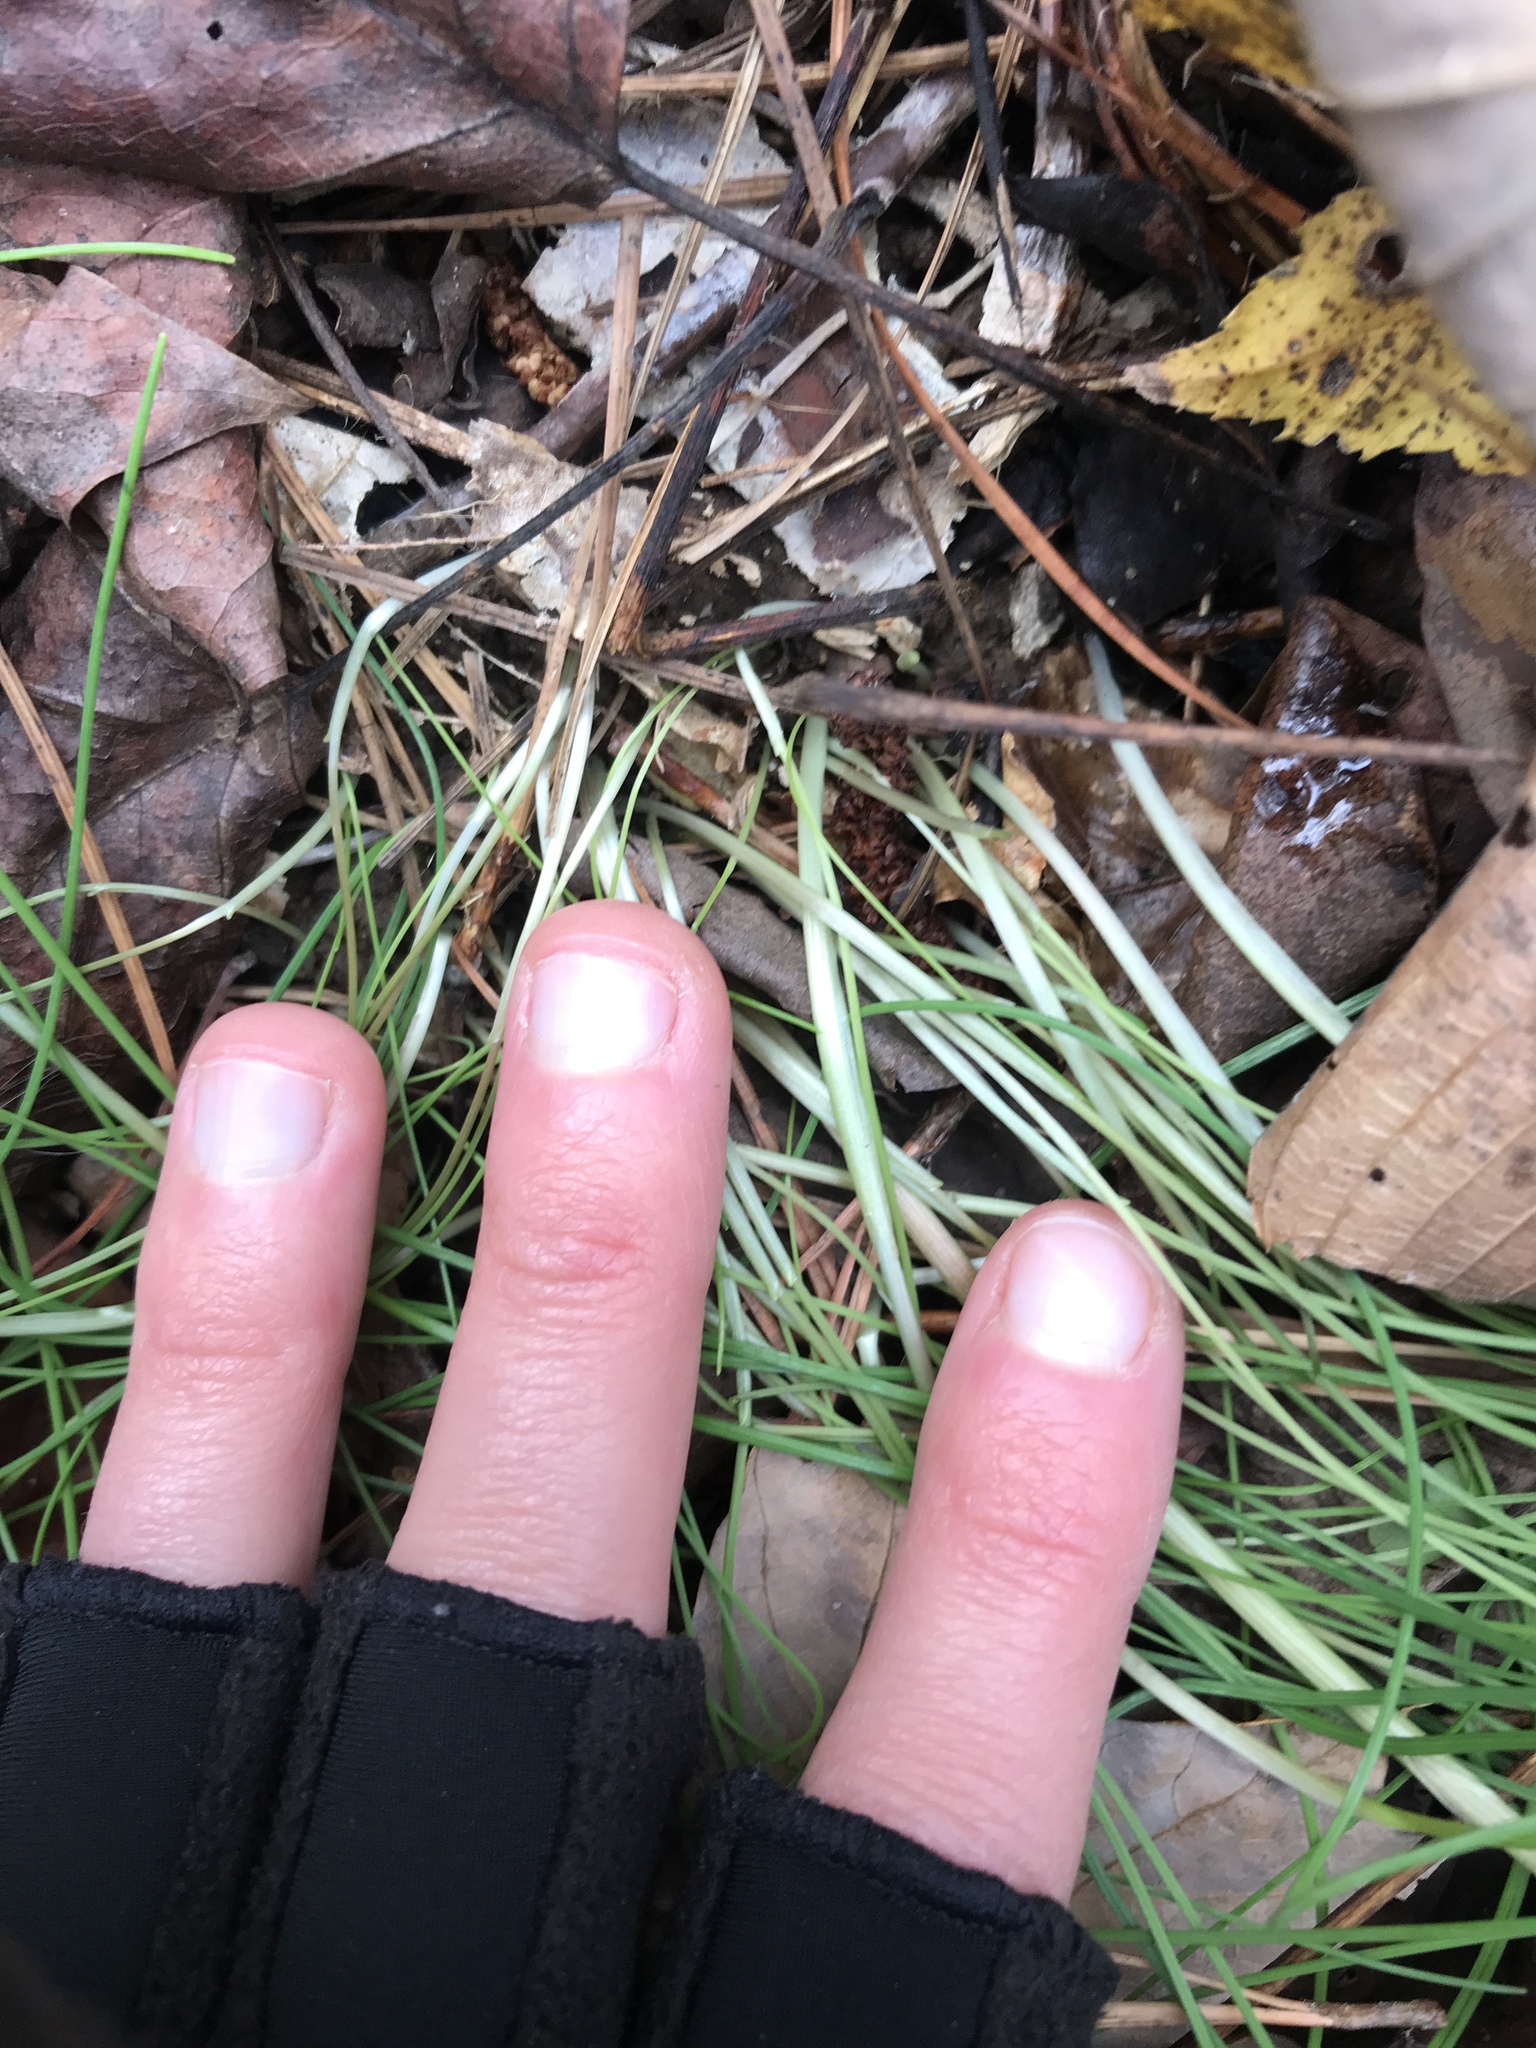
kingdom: Plantae
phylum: Tracheophyta
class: Liliopsida
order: Asparagales
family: Amaryllidaceae
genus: Allium
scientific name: Allium vineale
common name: Crow garlic
